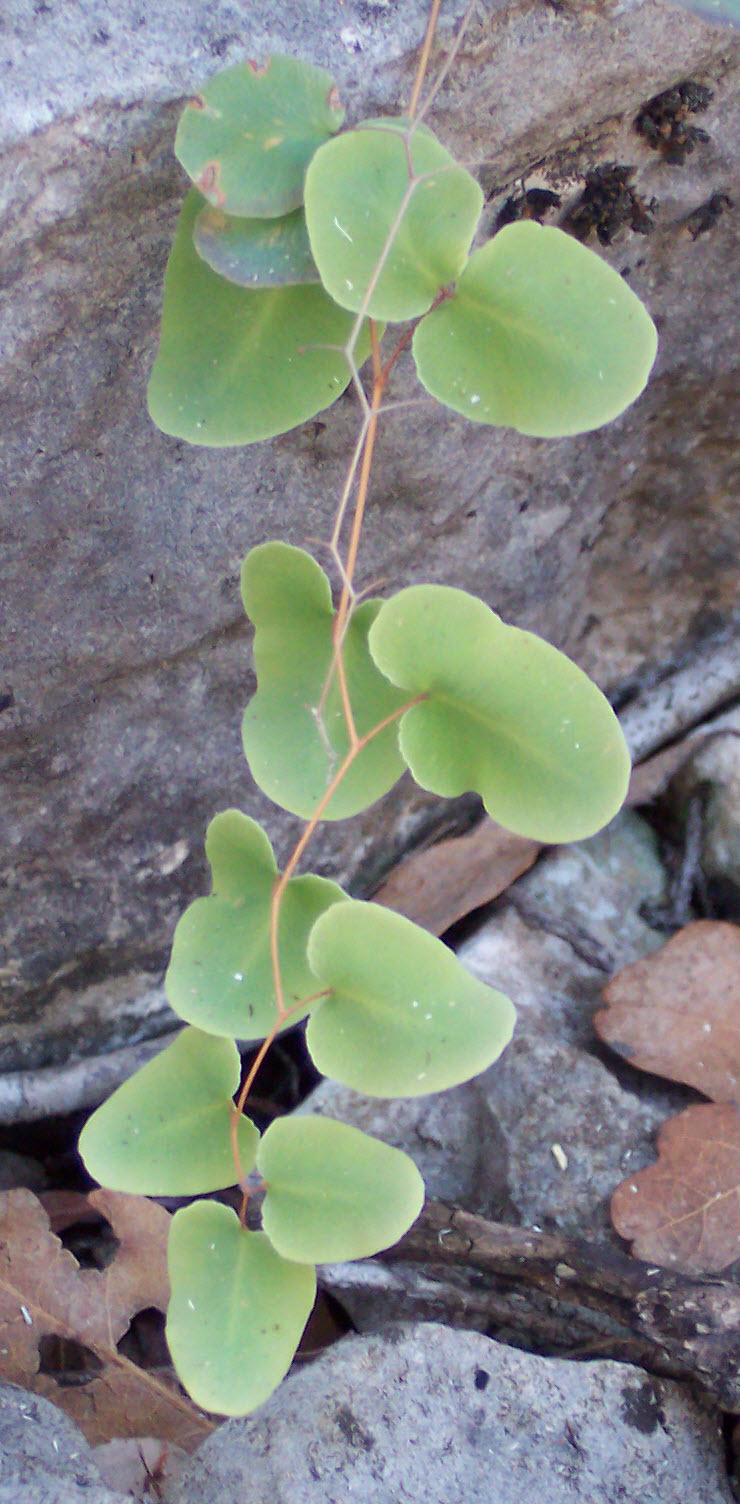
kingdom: Plantae
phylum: Tracheophyta
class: Polypodiopsida
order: Polypodiales
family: Pteridaceae
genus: Pellaea
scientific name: Pellaea ovata
